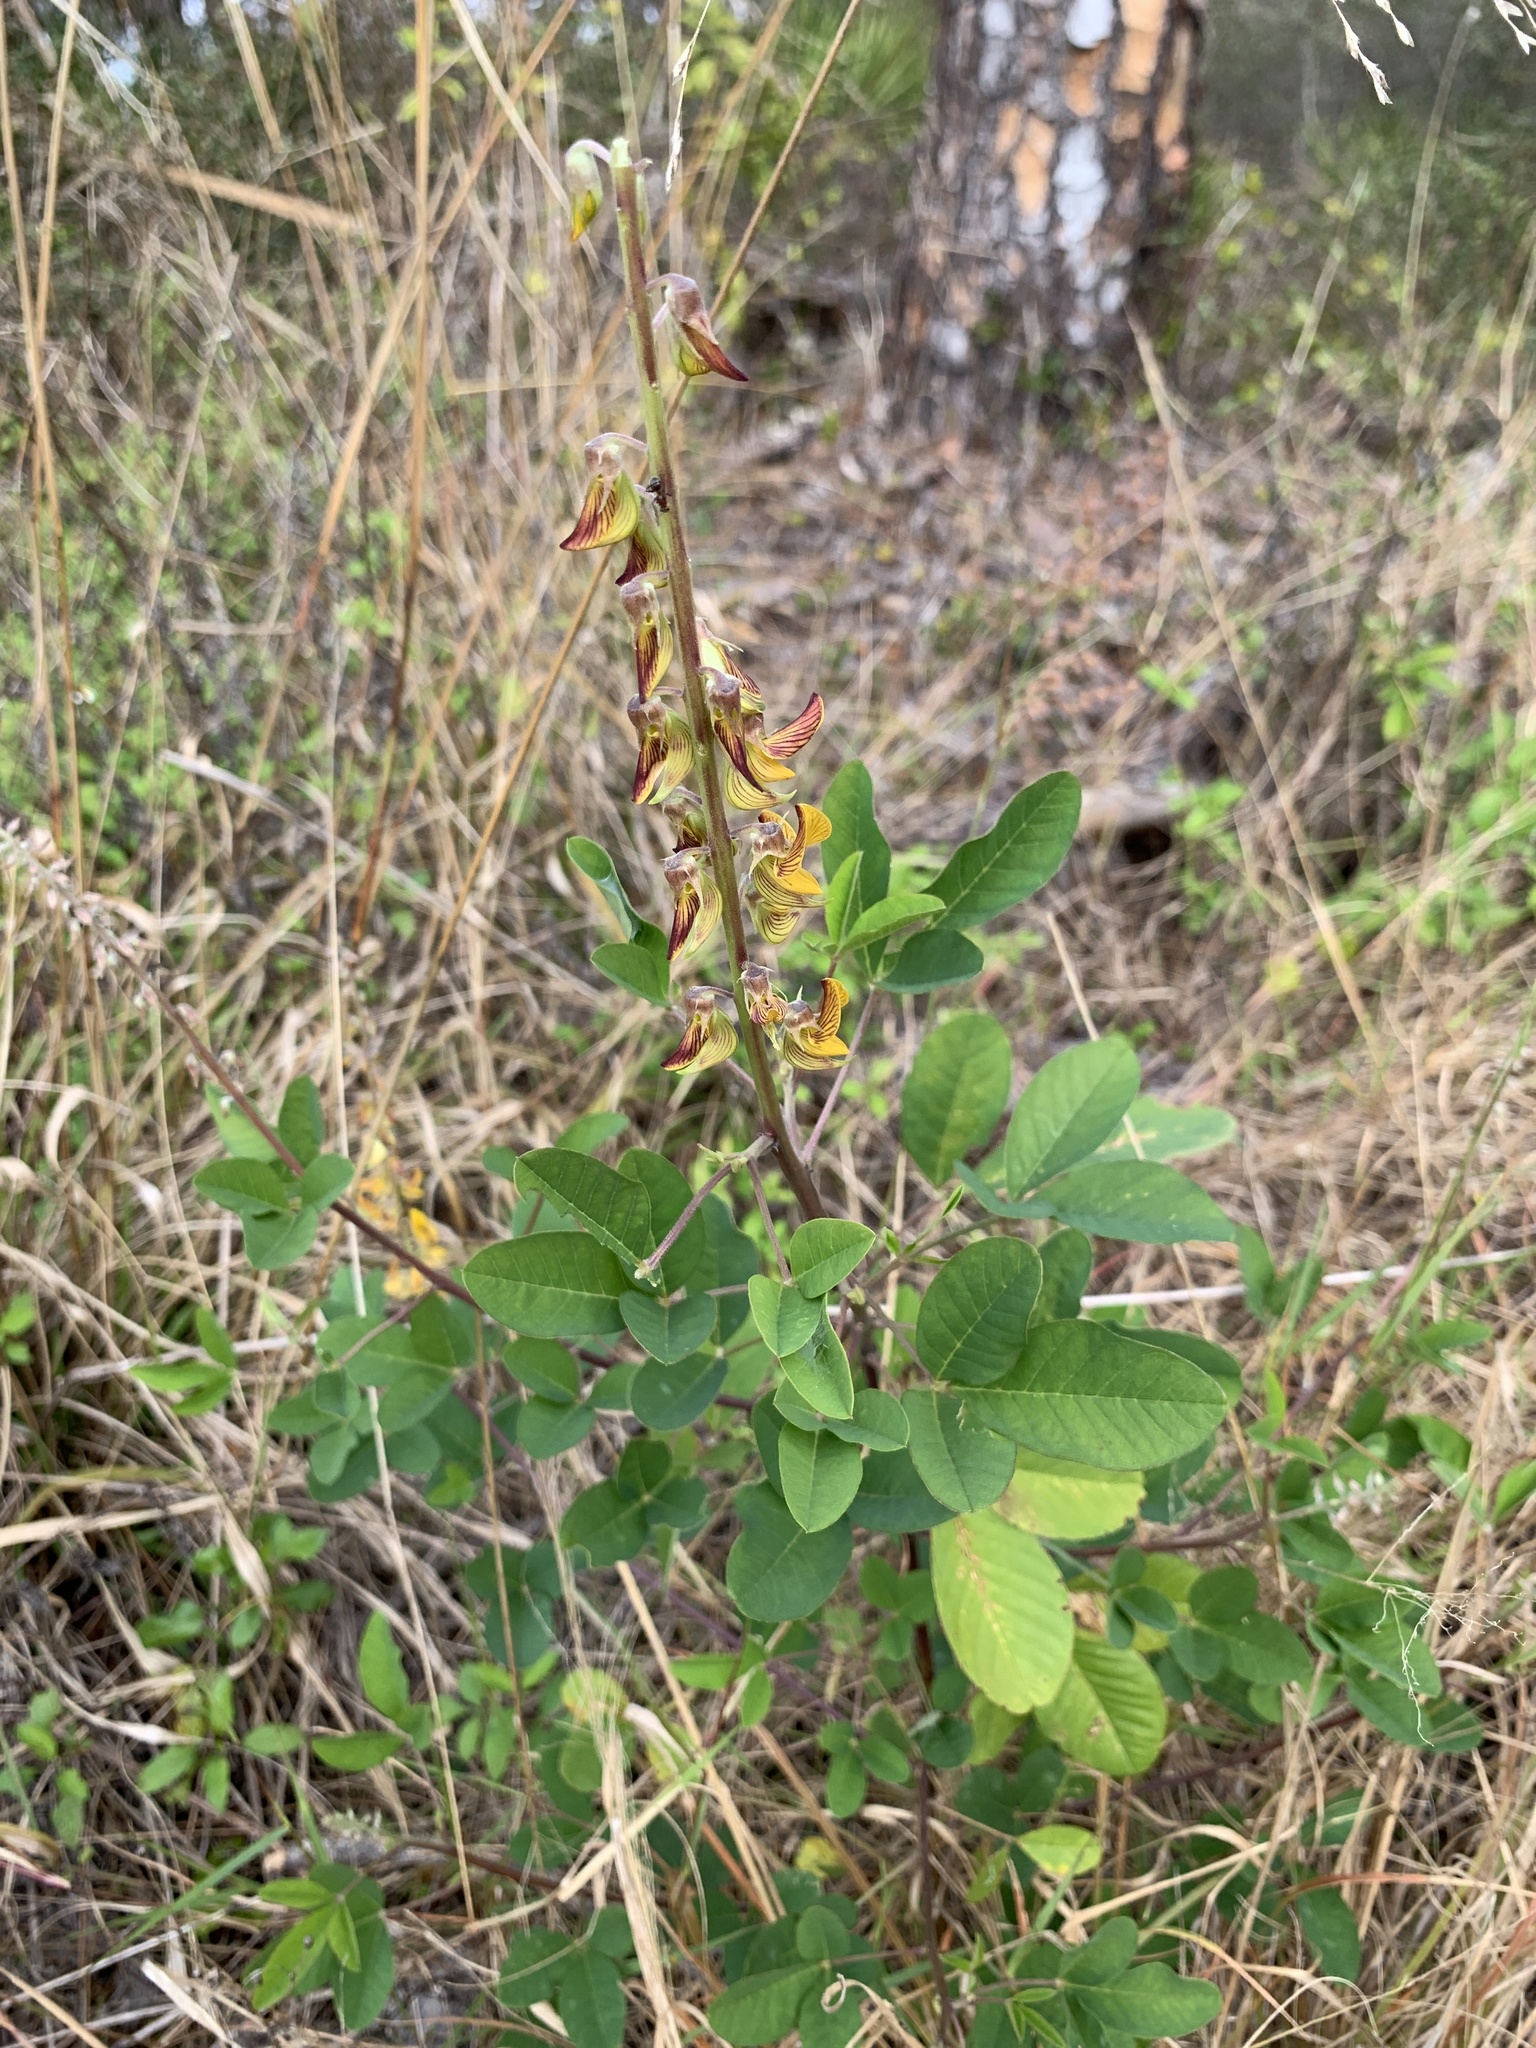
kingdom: Plantae
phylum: Tracheophyta
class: Magnoliopsida
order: Fabales
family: Fabaceae
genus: Crotalaria
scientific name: Crotalaria pallida
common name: Smooth rattlebox
